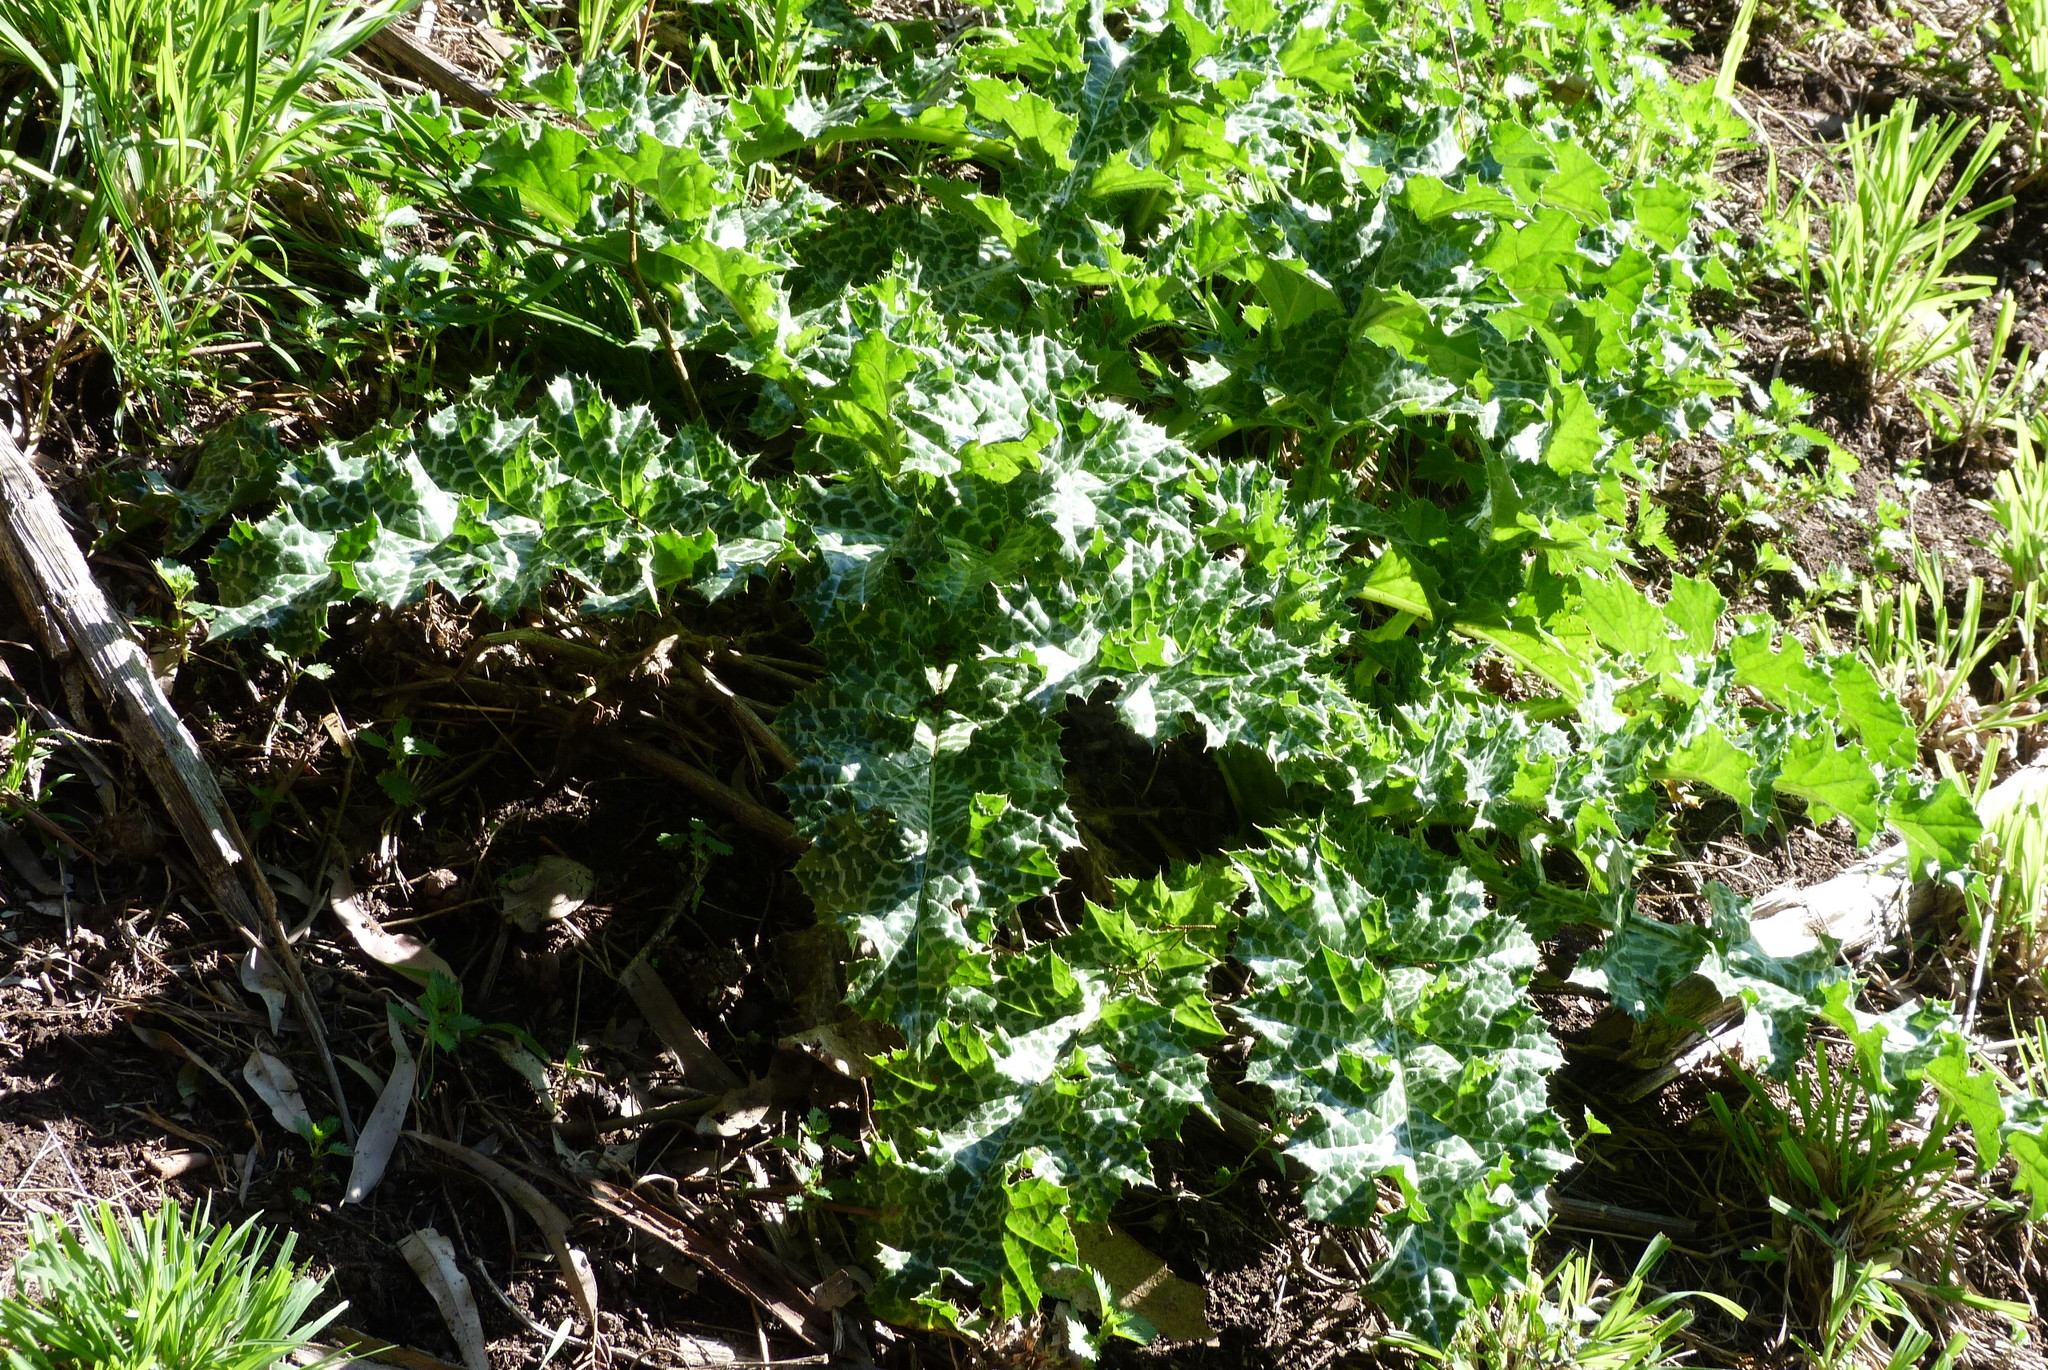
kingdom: Plantae
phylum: Tracheophyta
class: Magnoliopsida
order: Asterales
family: Asteraceae
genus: Silybum
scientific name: Silybum marianum
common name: Milk thistle
